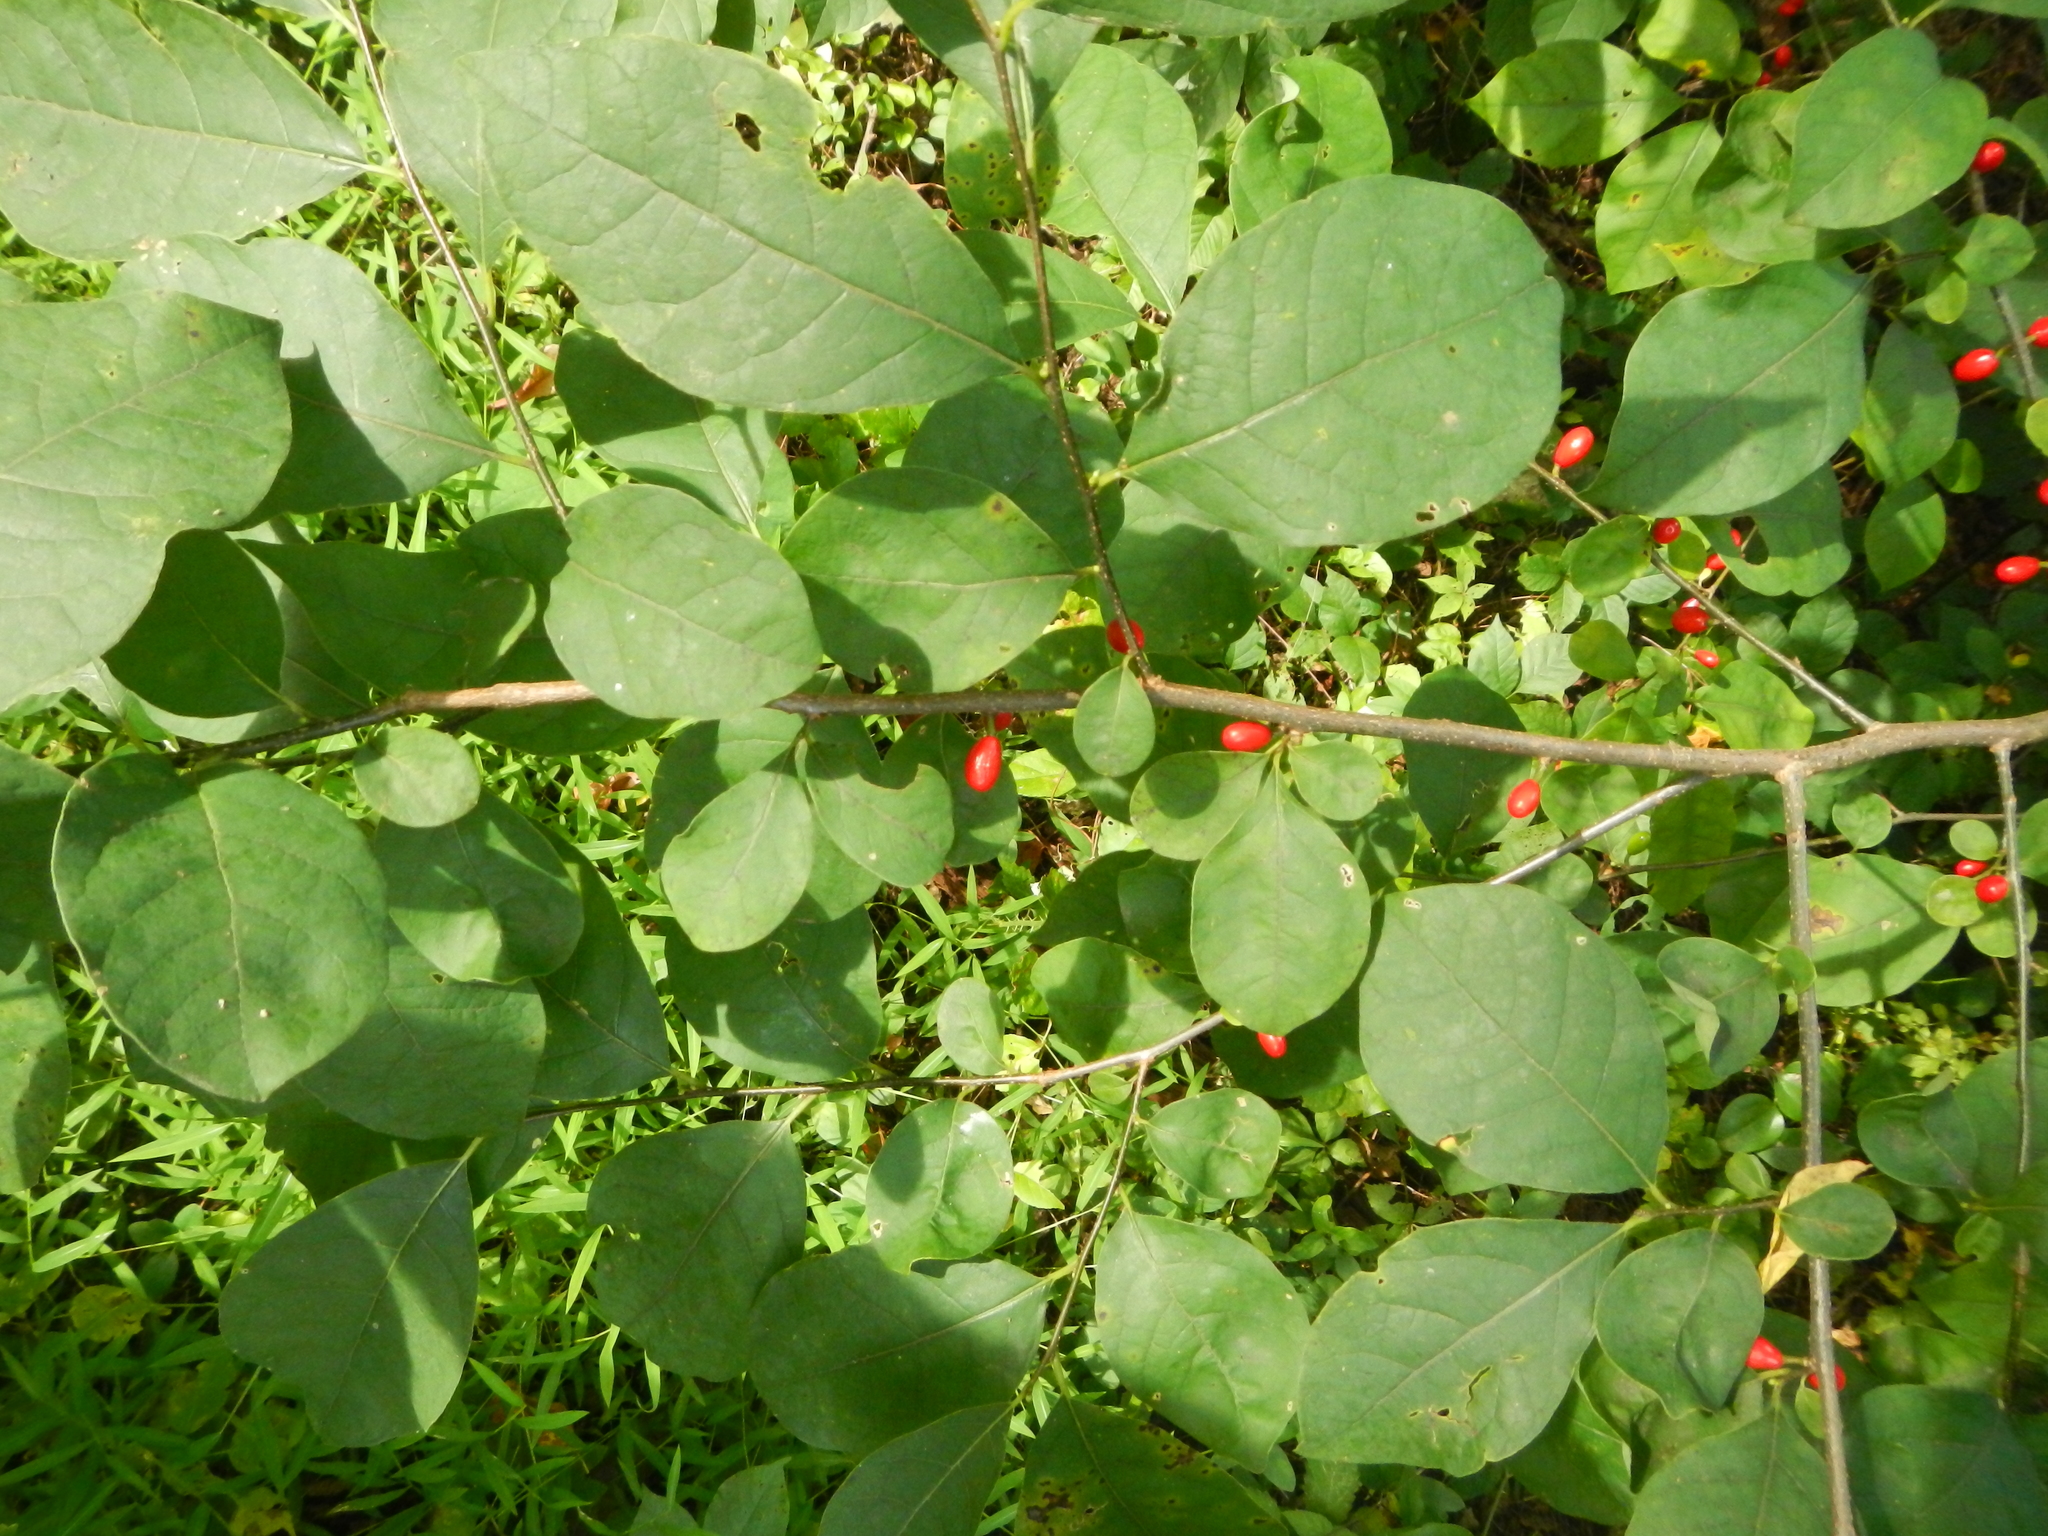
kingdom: Plantae
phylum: Tracheophyta
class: Magnoliopsida
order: Laurales
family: Lauraceae
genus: Lindera
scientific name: Lindera benzoin
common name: Spicebush
